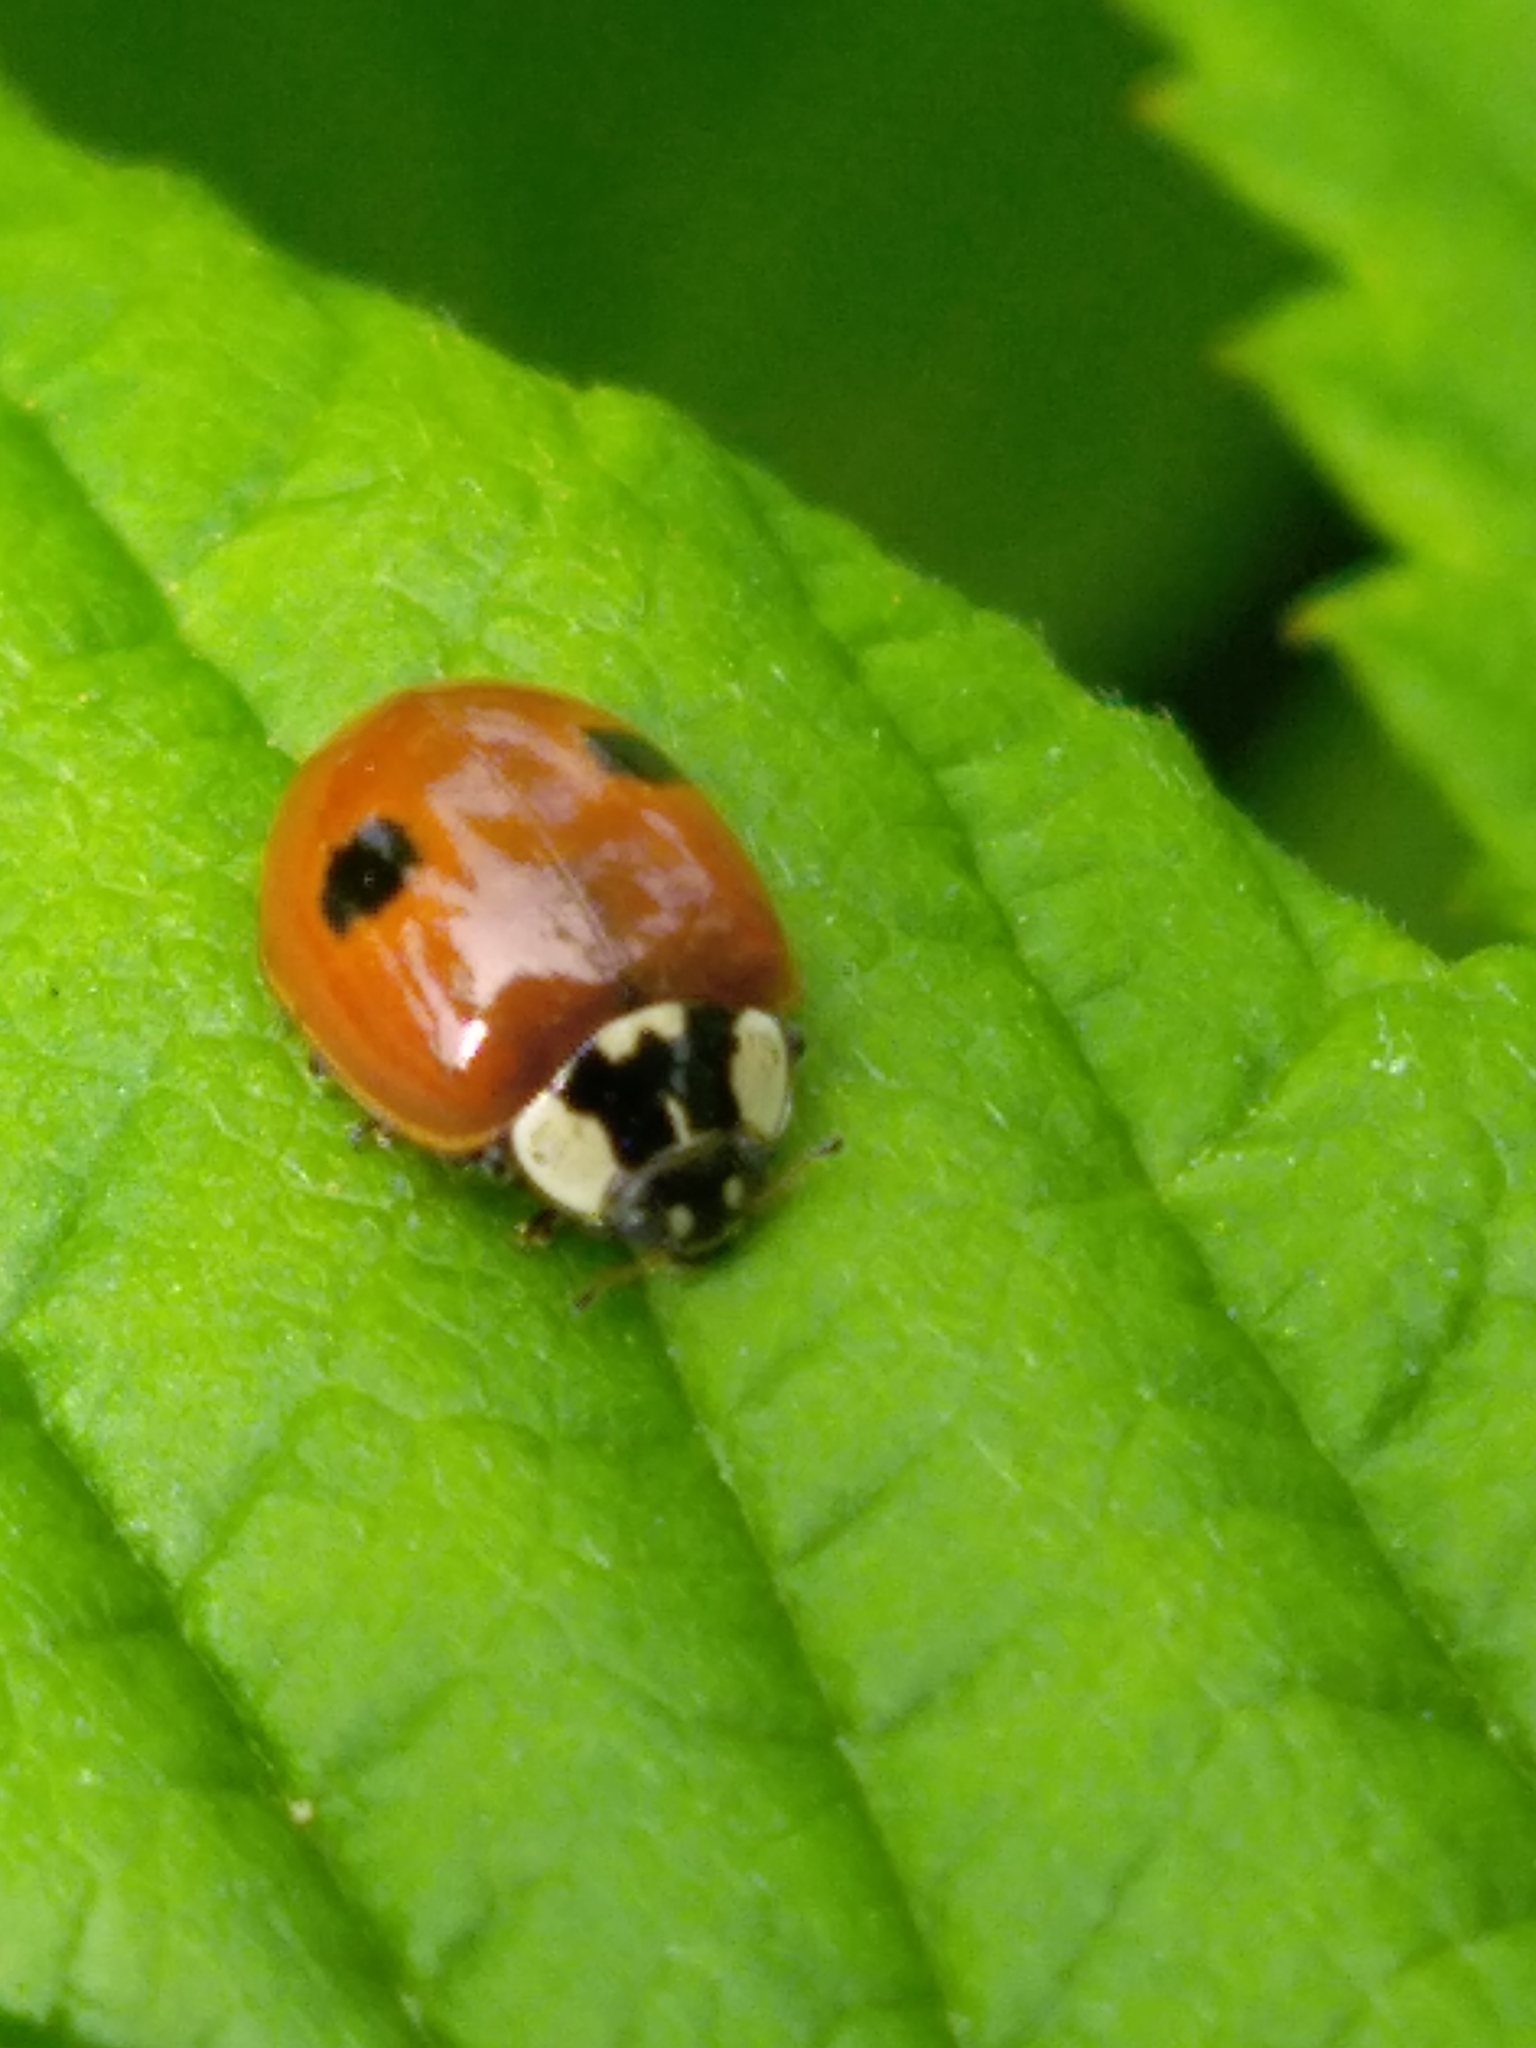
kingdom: Animalia
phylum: Arthropoda
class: Insecta
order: Coleoptera
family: Coccinellidae
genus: Adalia
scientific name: Adalia bipunctata
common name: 2-spot ladybird
